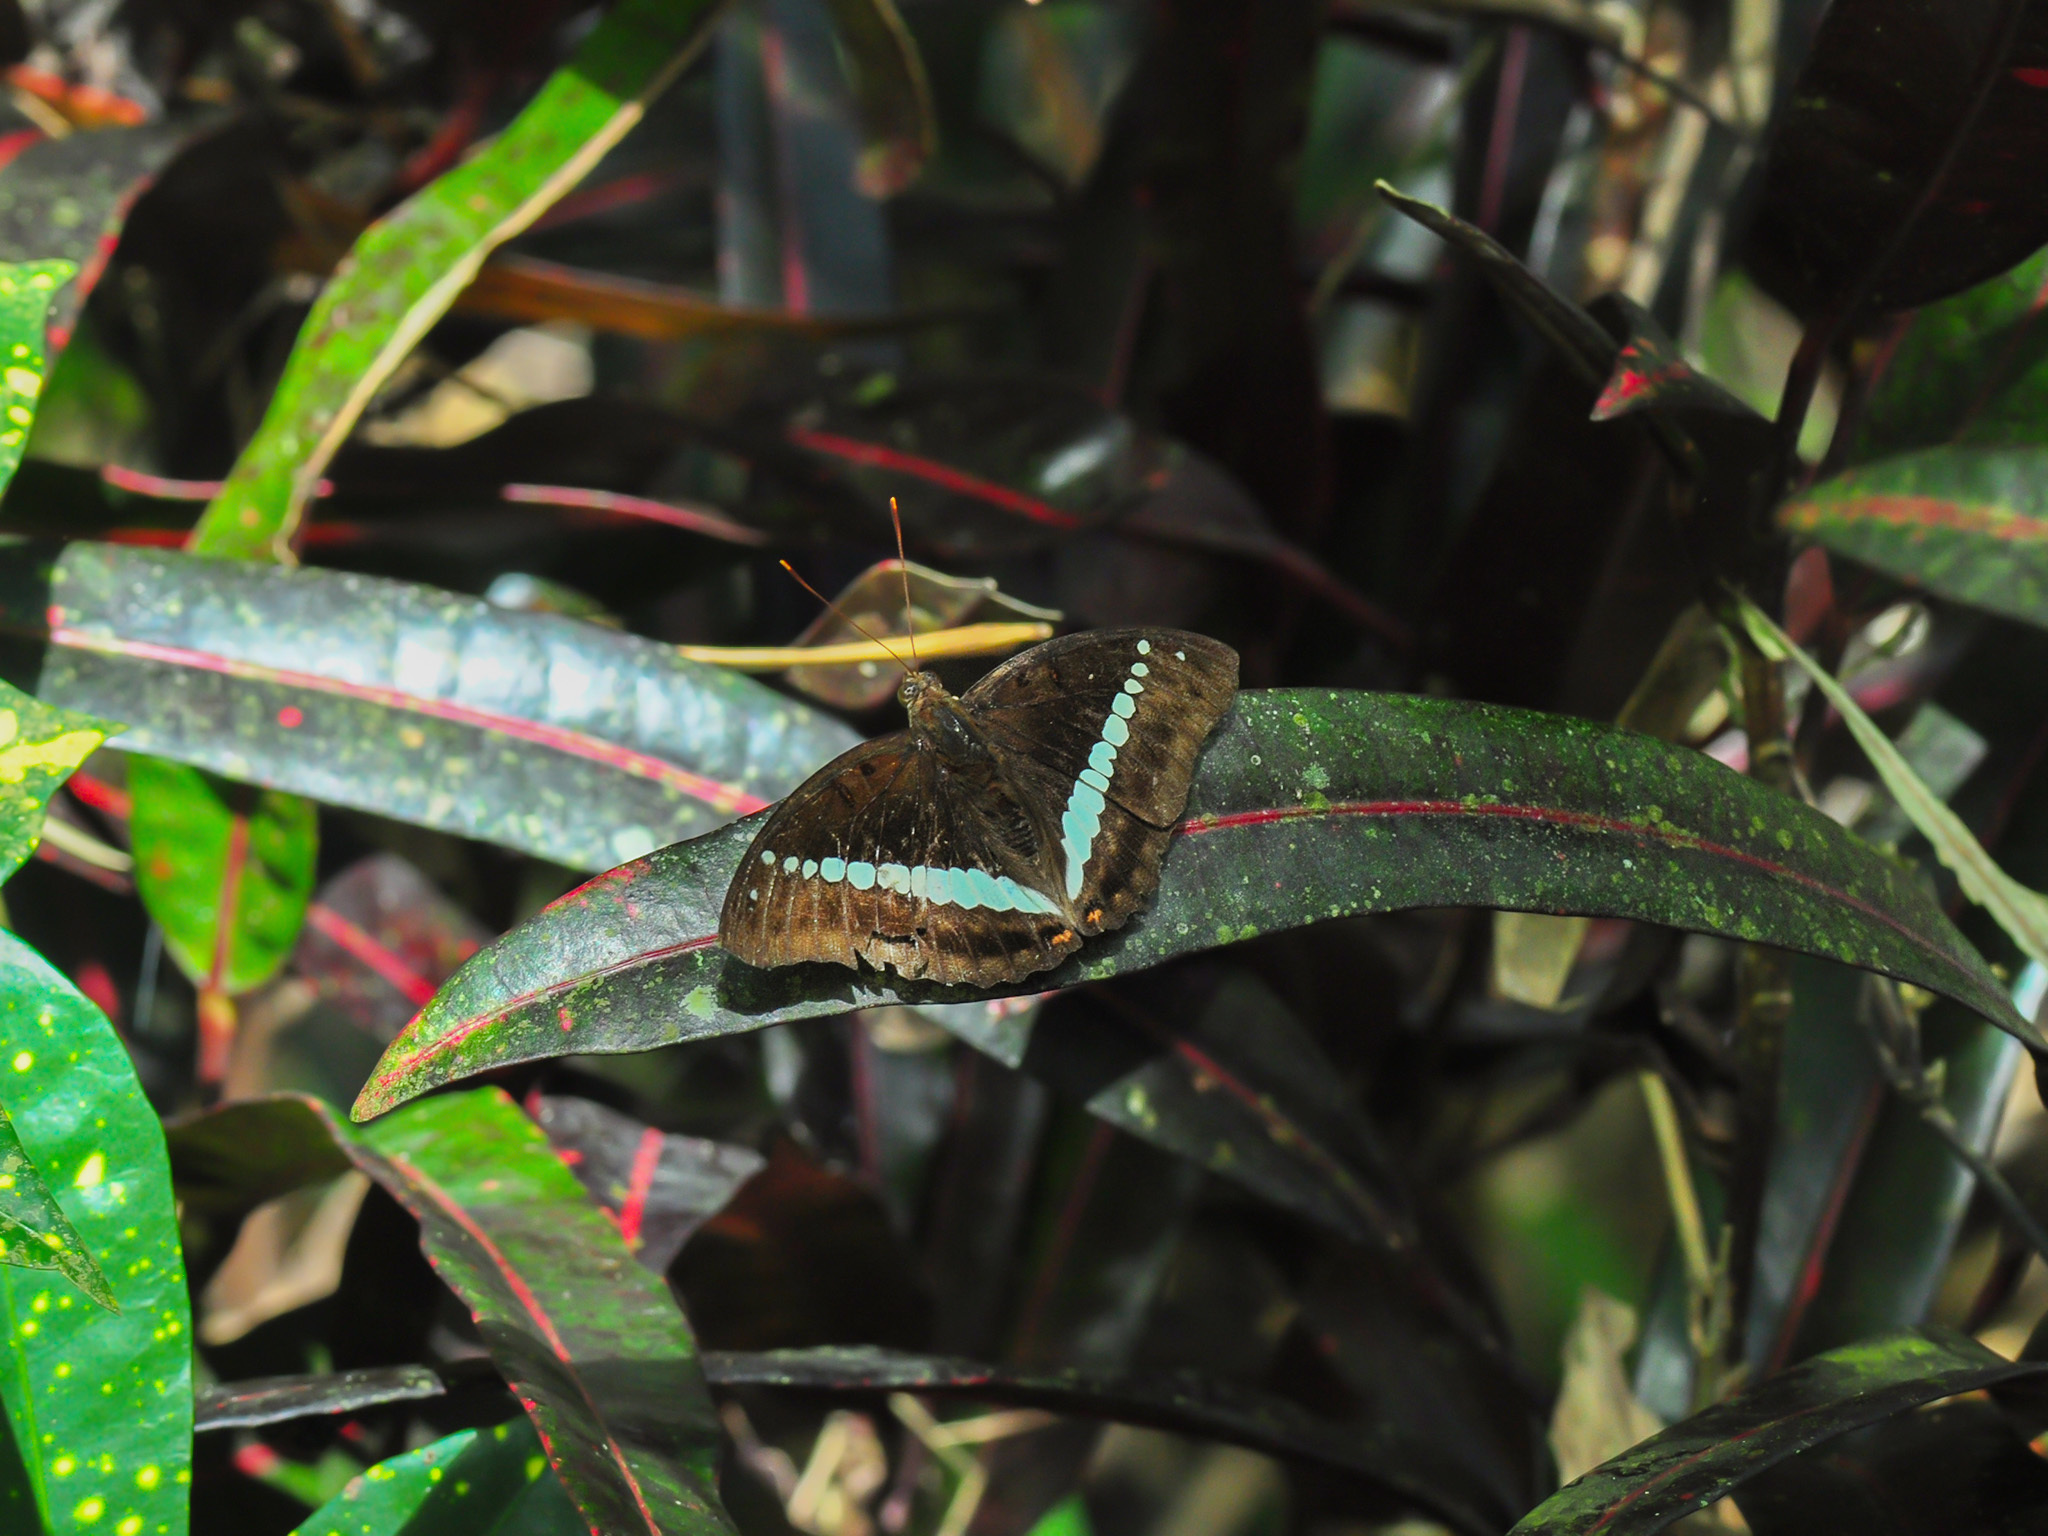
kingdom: Animalia
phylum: Arthropoda
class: Insecta
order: Lepidoptera
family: Nymphalidae
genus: Euthalia
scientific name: Euthalia recta
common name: Redtail marquis
